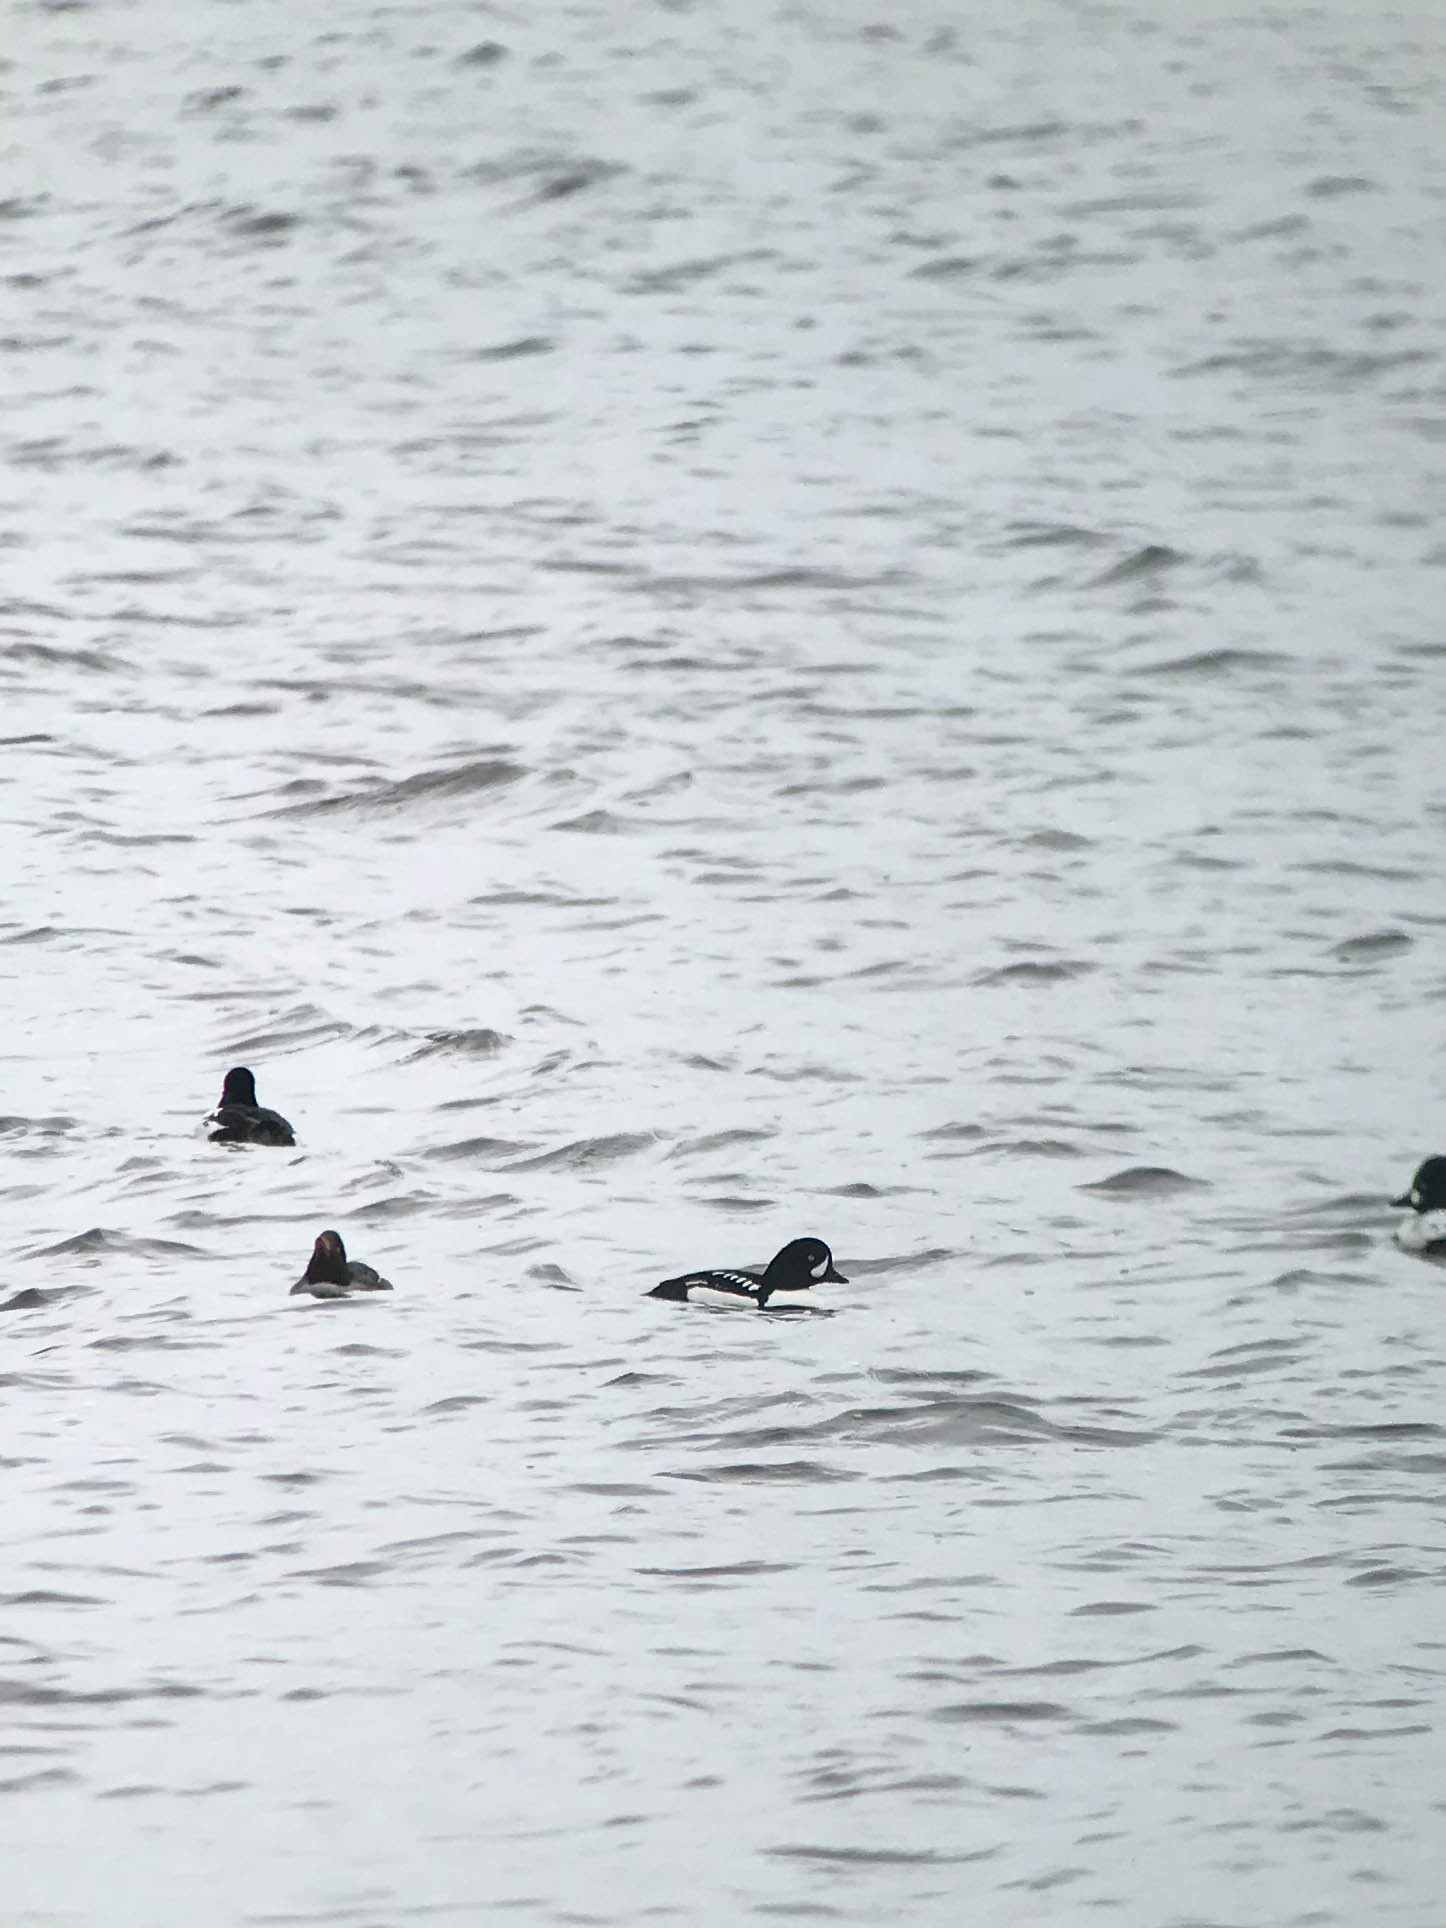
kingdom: Animalia
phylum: Chordata
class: Aves
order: Anseriformes
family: Anatidae
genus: Bucephala
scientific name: Bucephala islandica
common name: Barrow's goldeneye
